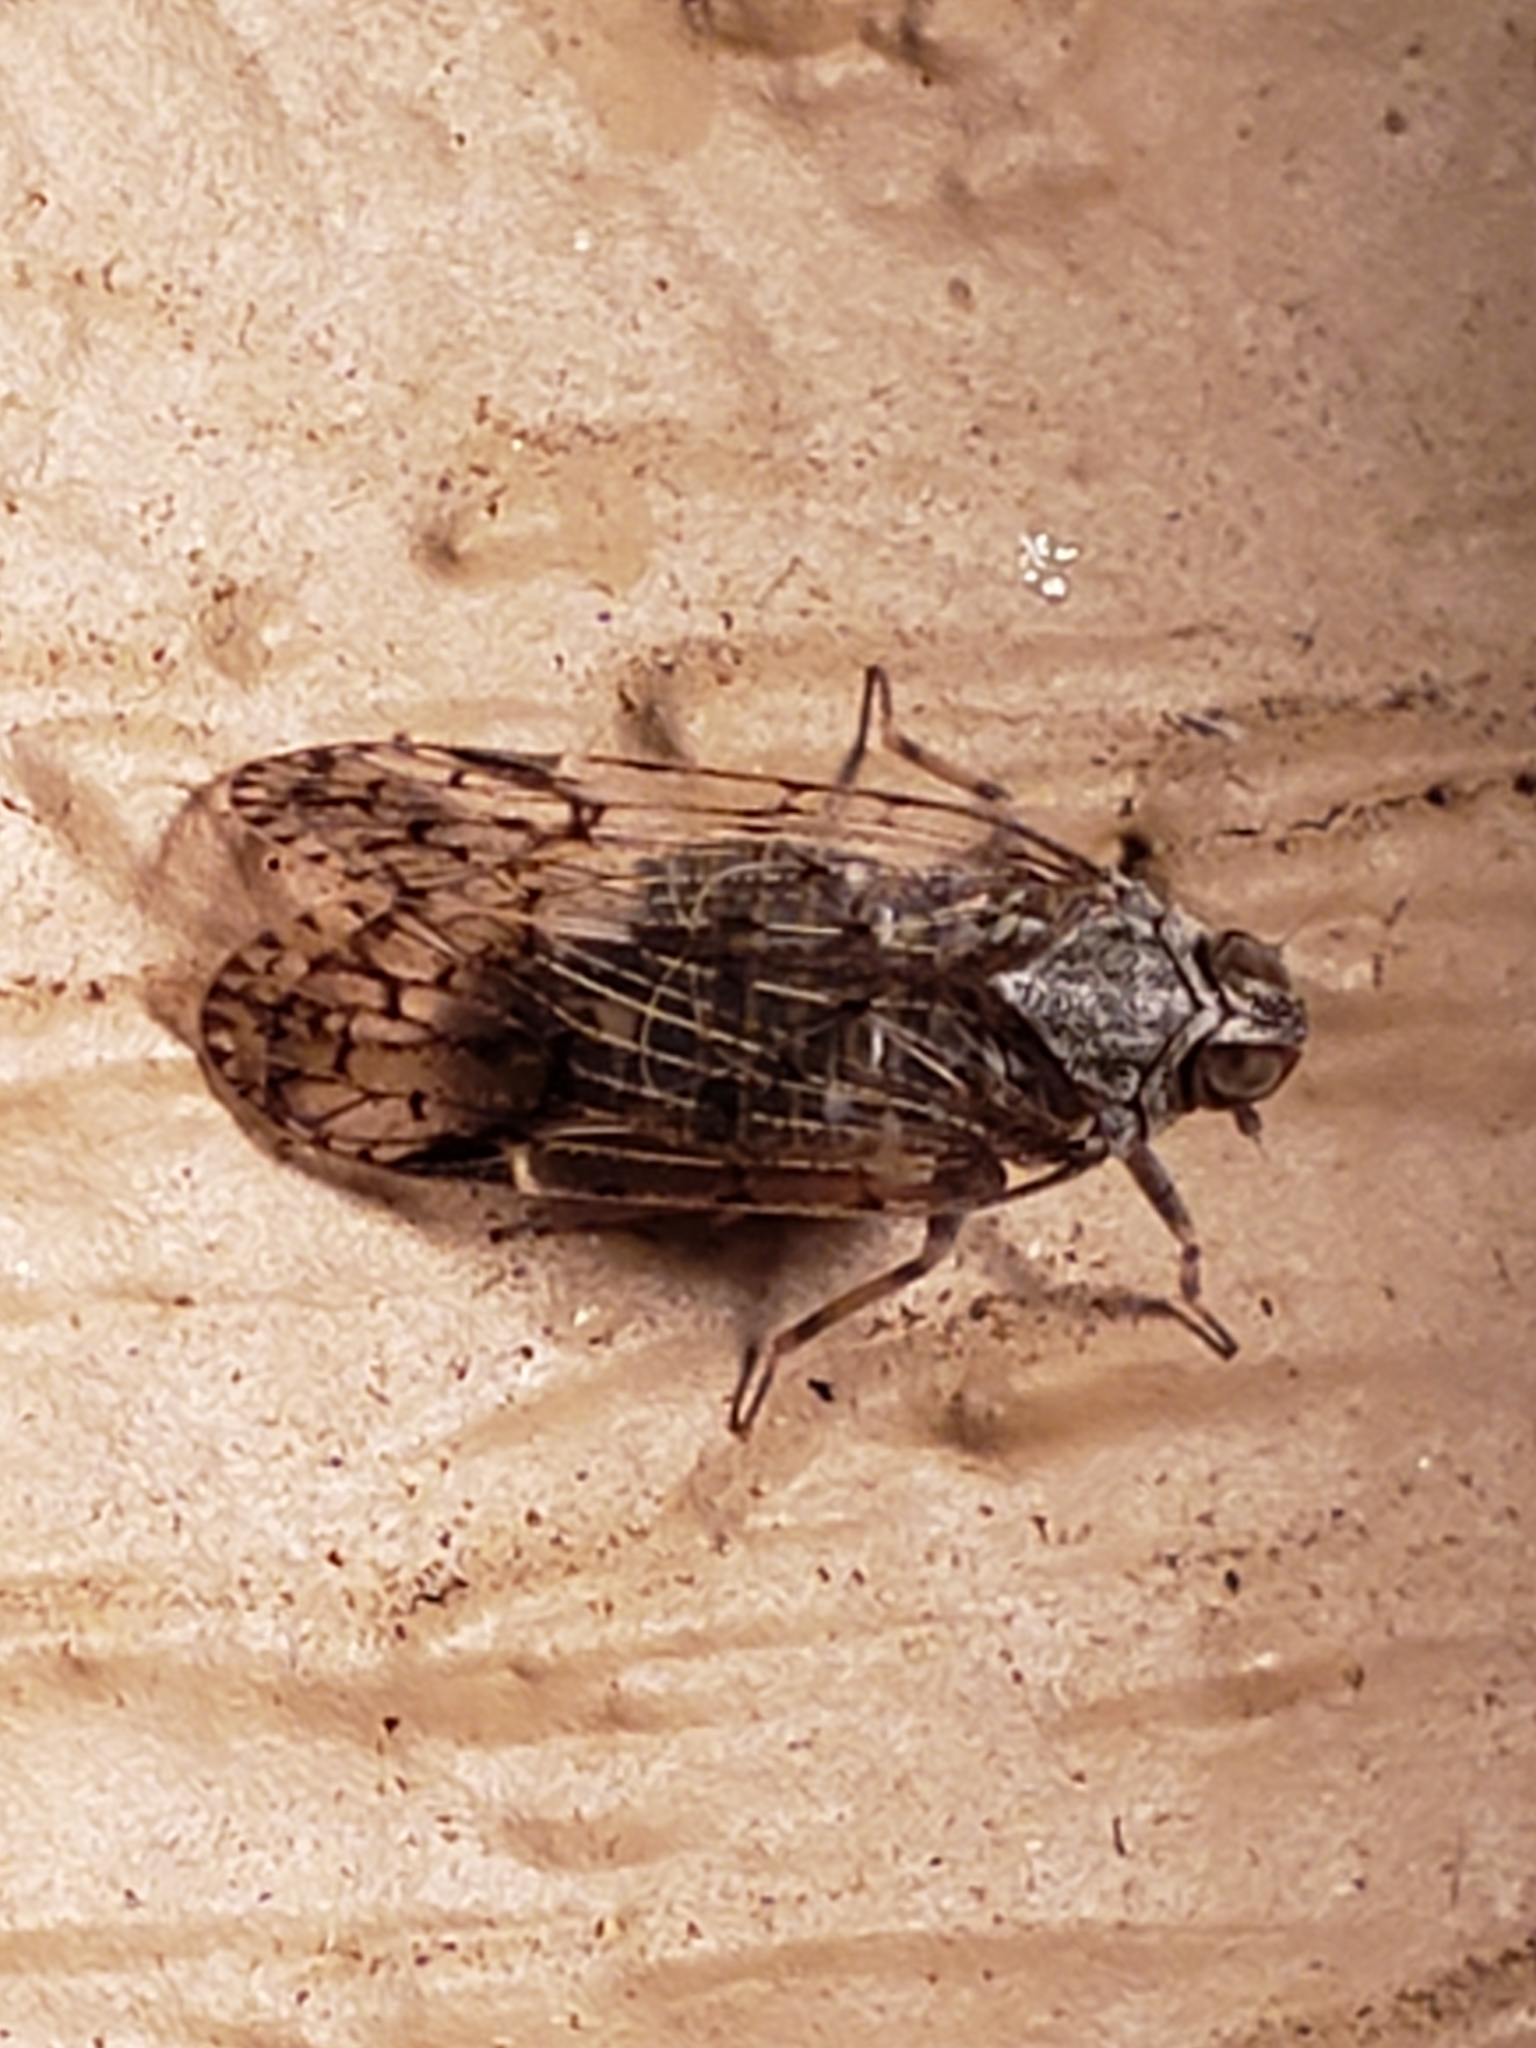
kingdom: Animalia
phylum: Arthropoda
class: Insecta
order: Hemiptera
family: Cixiidae
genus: Melanoliarus
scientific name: Melanoliarus placitus
